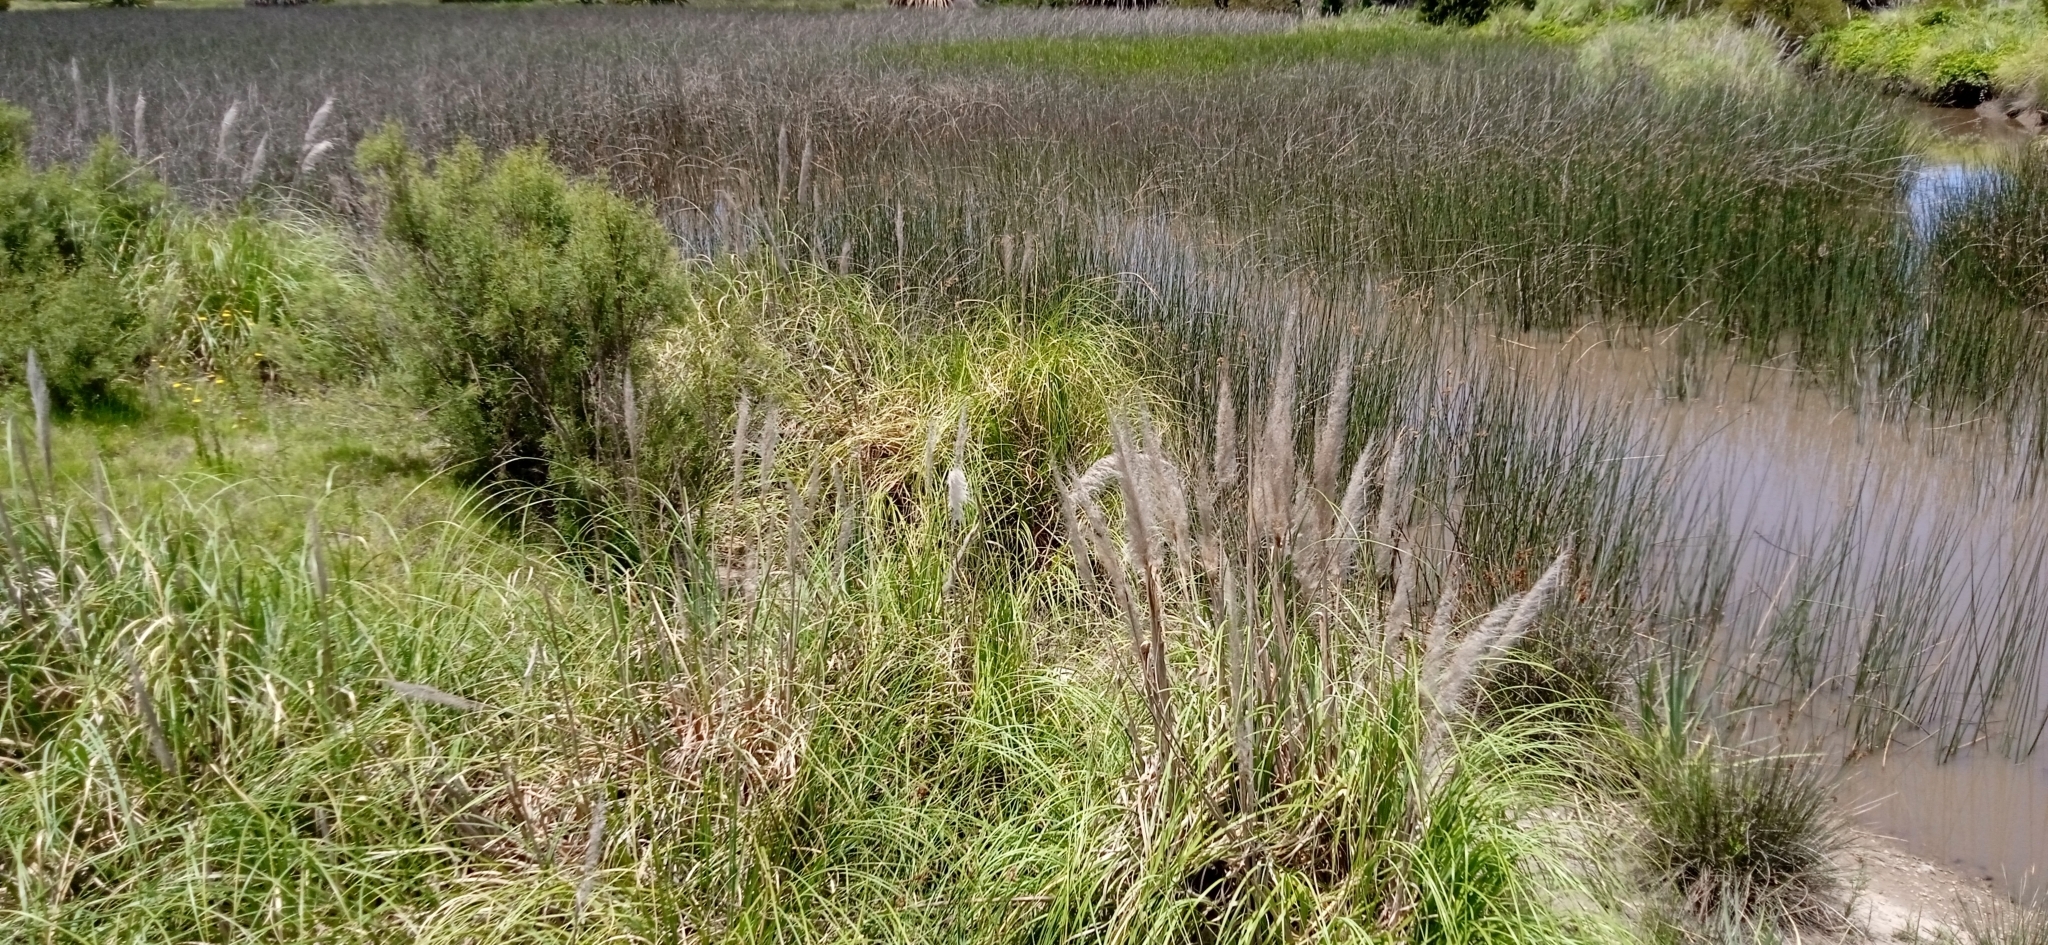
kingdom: Plantae
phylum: Tracheophyta
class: Liliopsida
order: Poales
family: Poaceae
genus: Cortaderia
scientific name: Cortaderia selloana
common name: Uruguayan pampas grass
